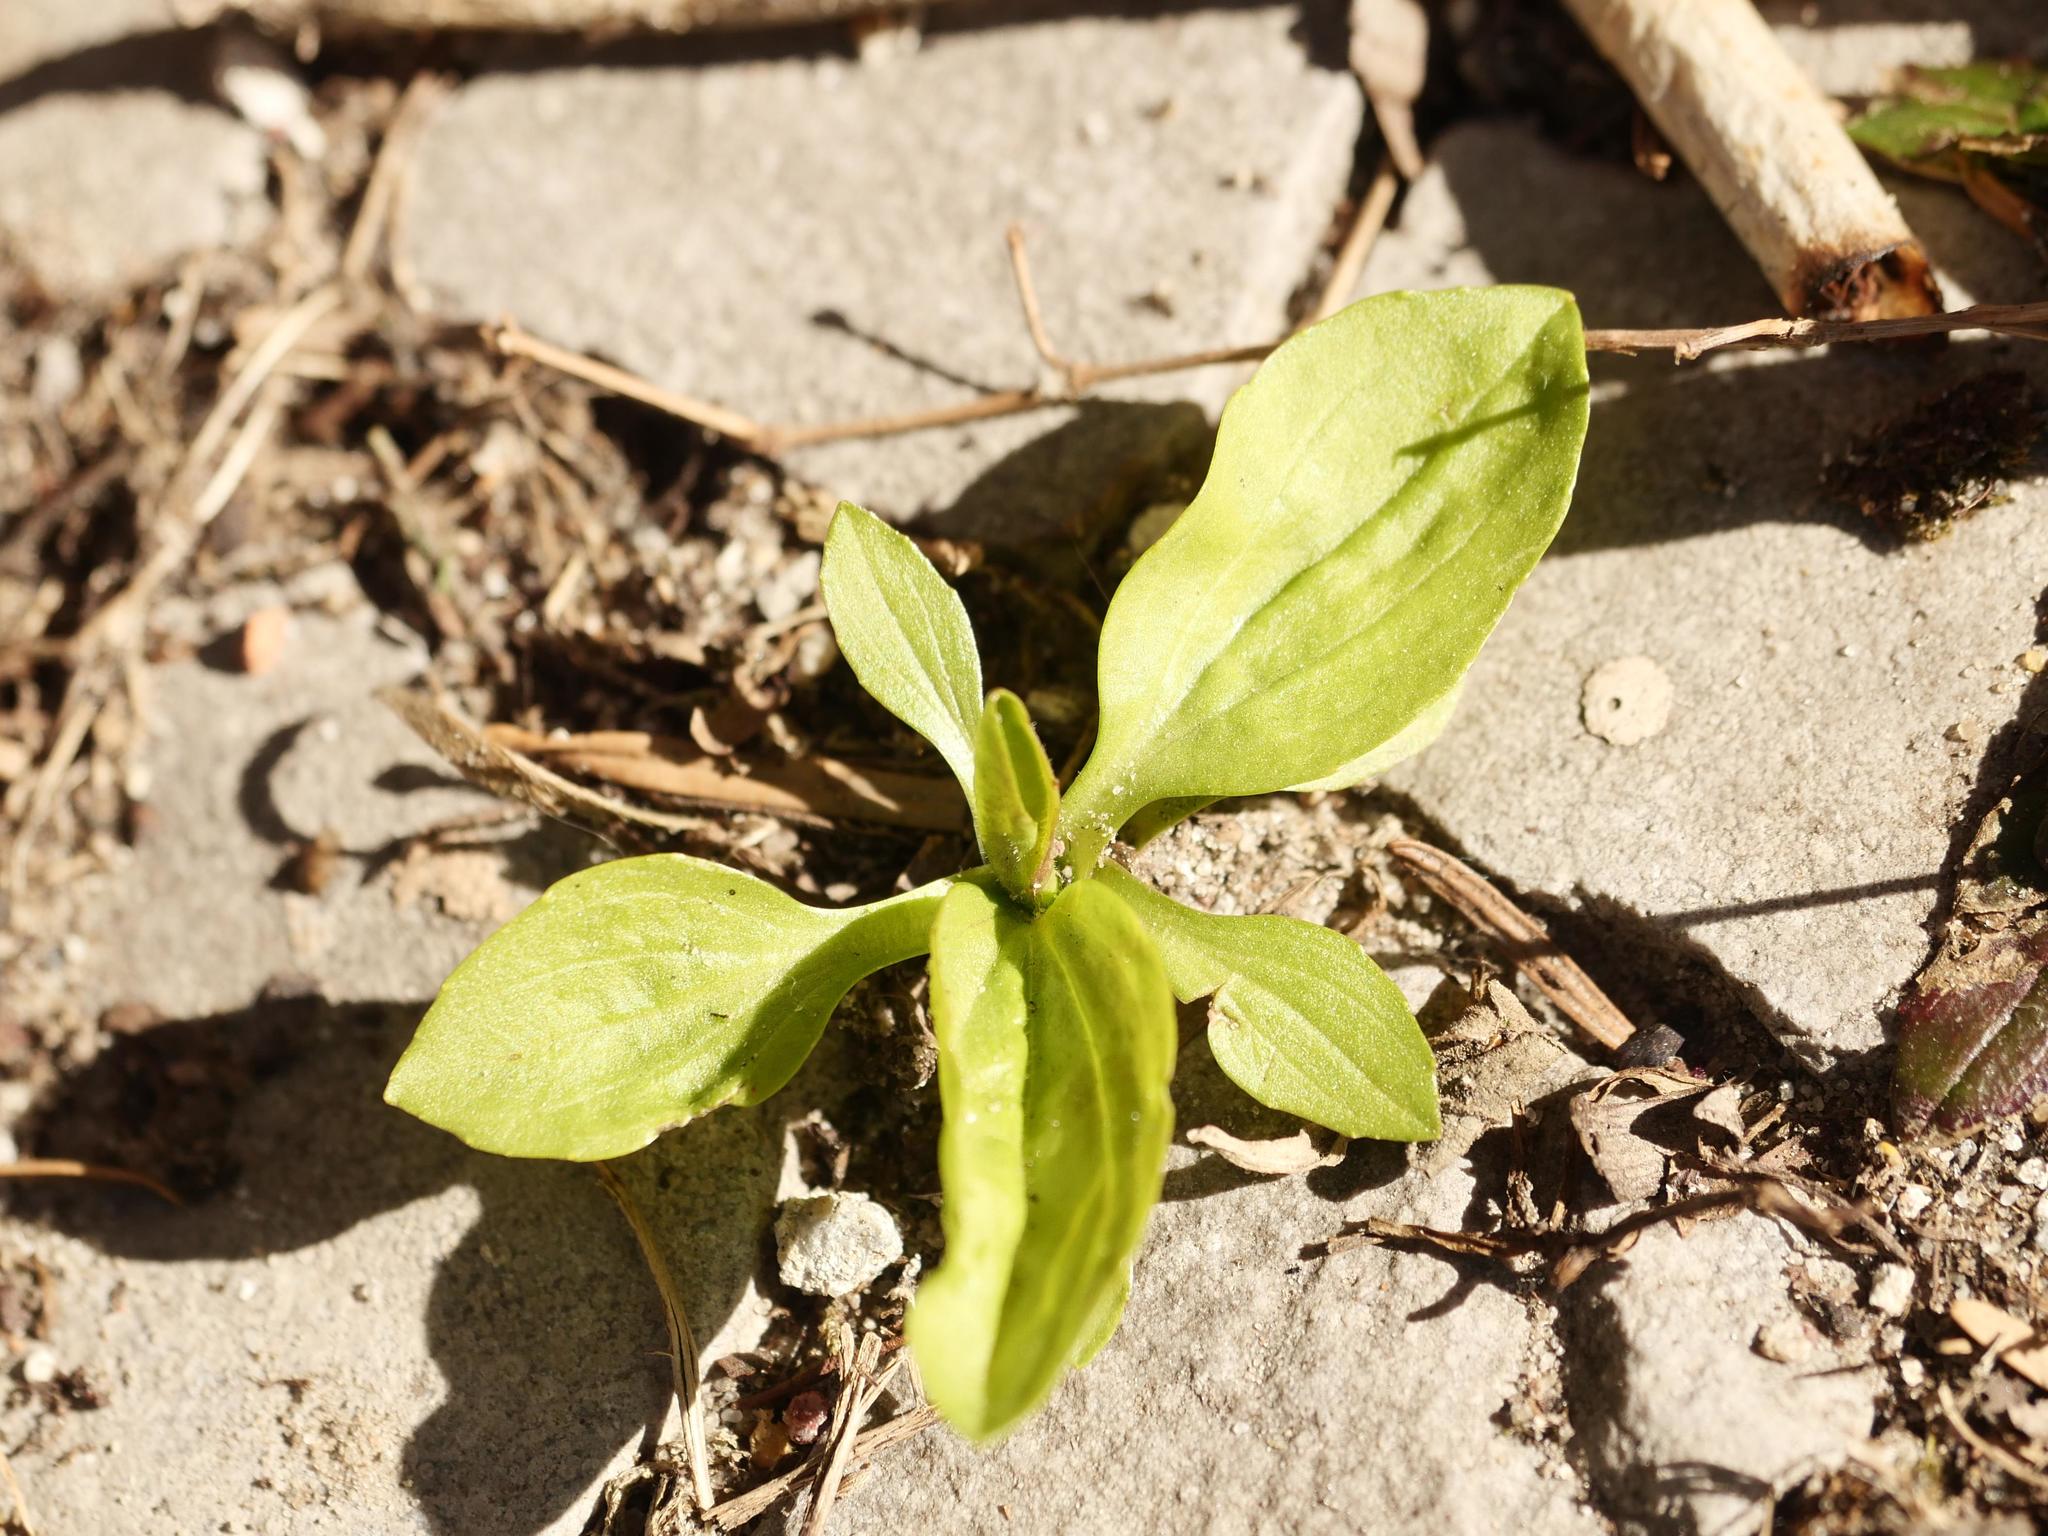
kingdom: Plantae
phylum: Tracheophyta
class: Magnoliopsida
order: Lamiales
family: Plantaginaceae
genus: Plantago
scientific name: Plantago major
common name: Common plantain
